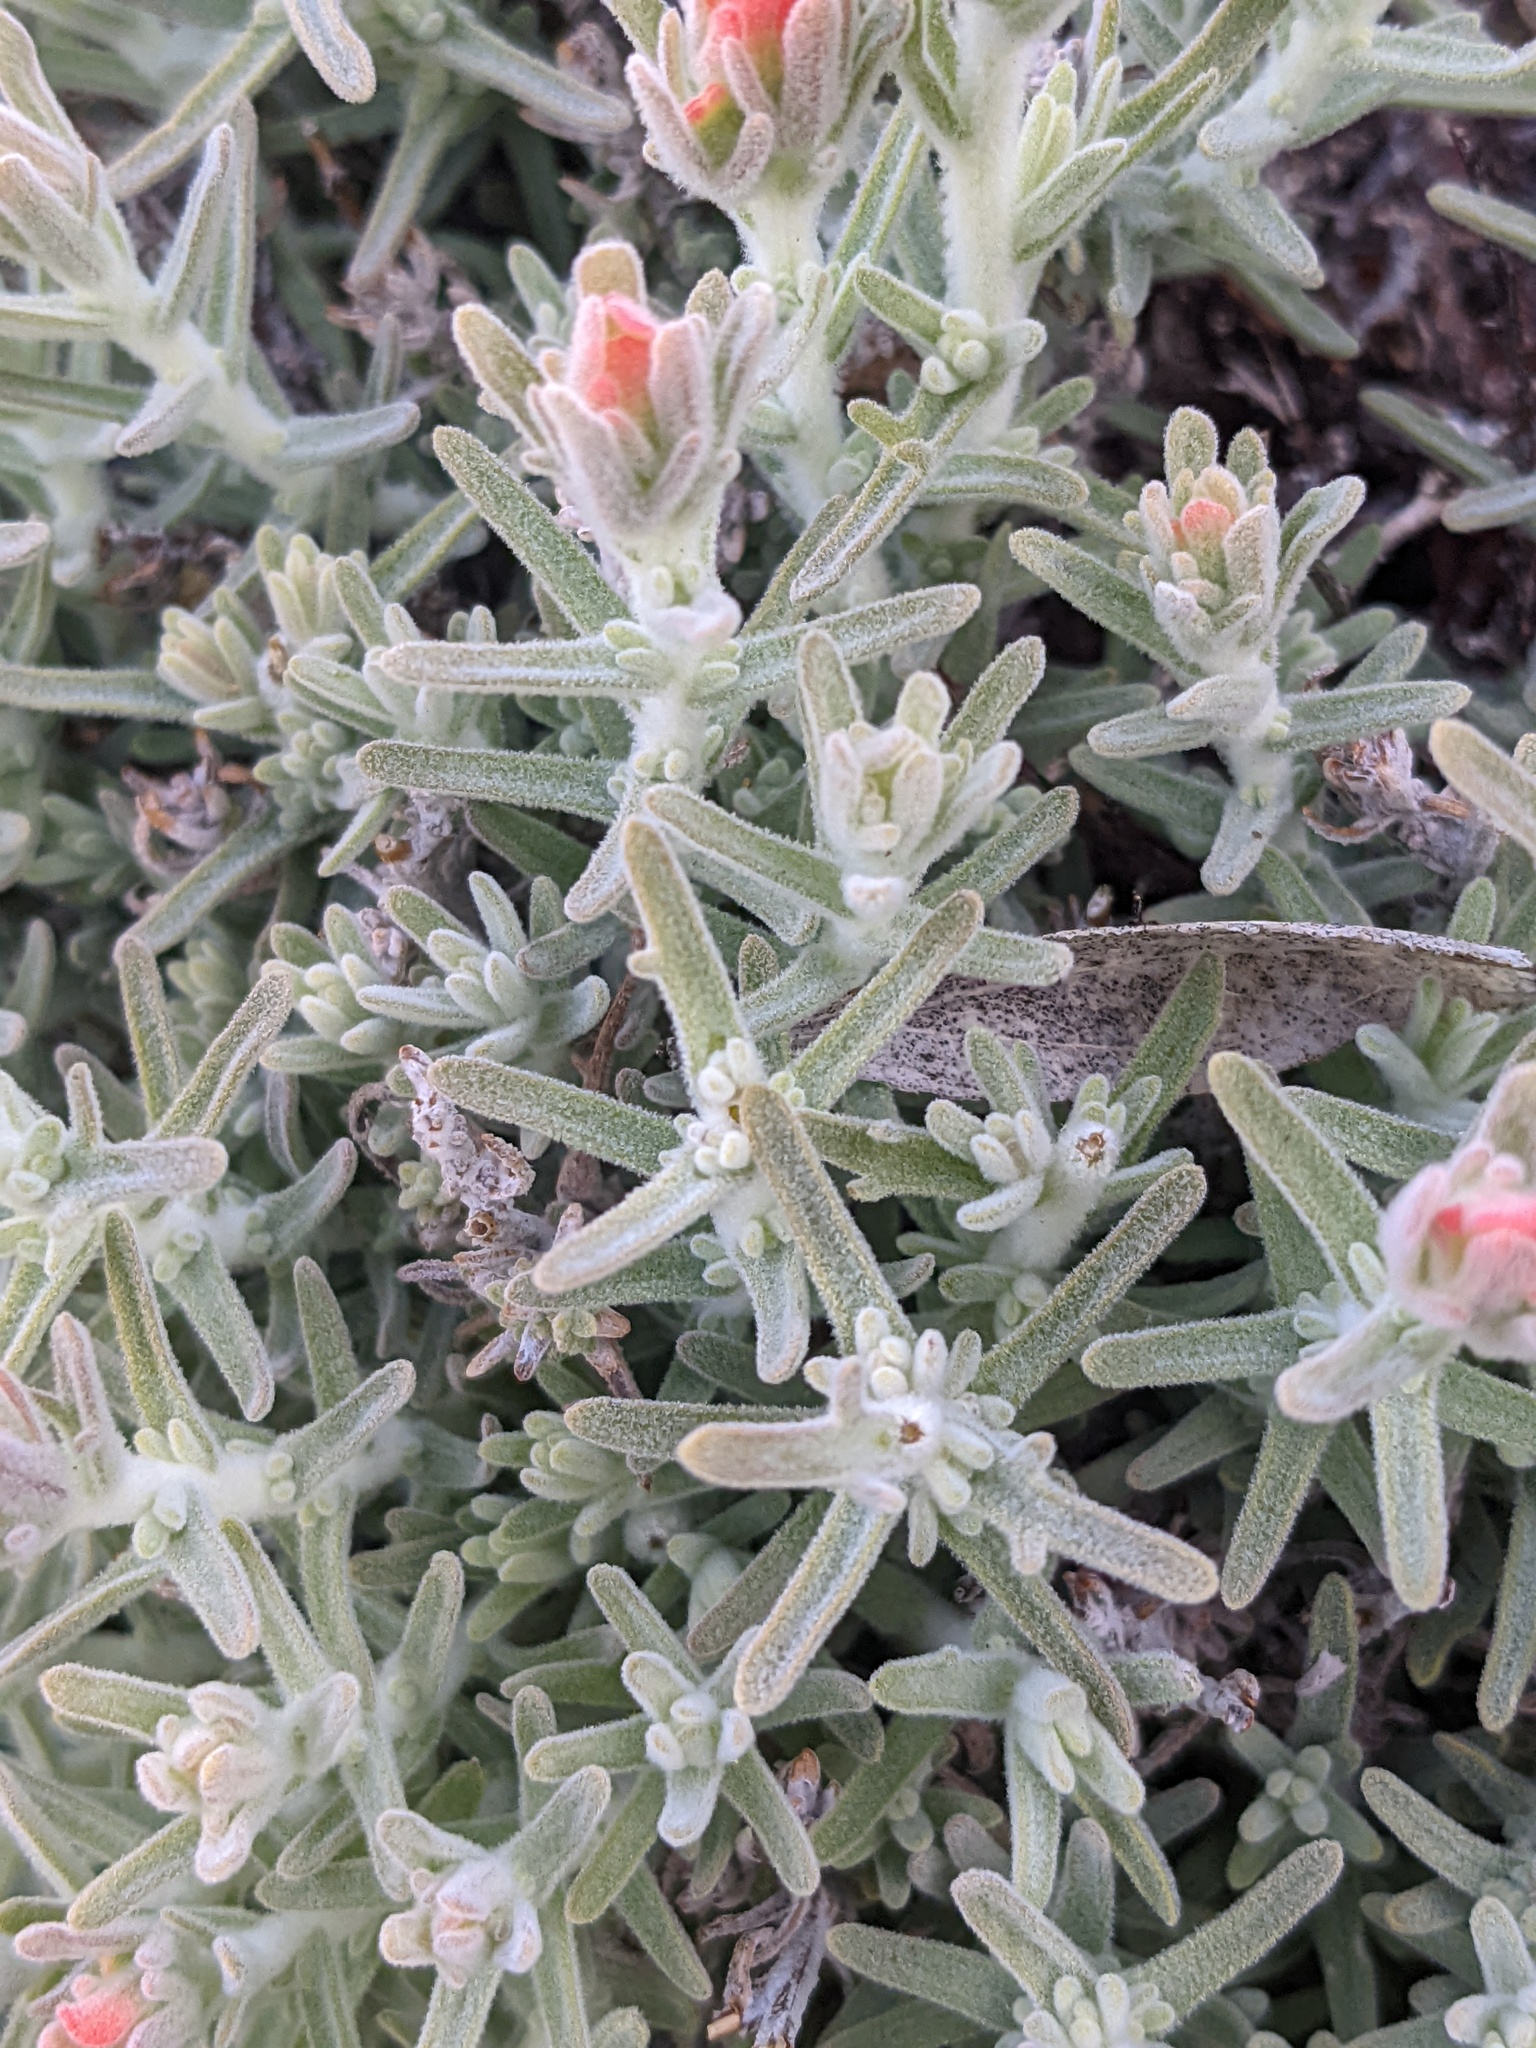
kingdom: Plantae
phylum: Tracheophyta
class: Magnoliopsida
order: Lamiales
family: Orobanchaceae
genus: Castilleja
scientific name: Castilleja foliolosa
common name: Woolly indian paintbrush
